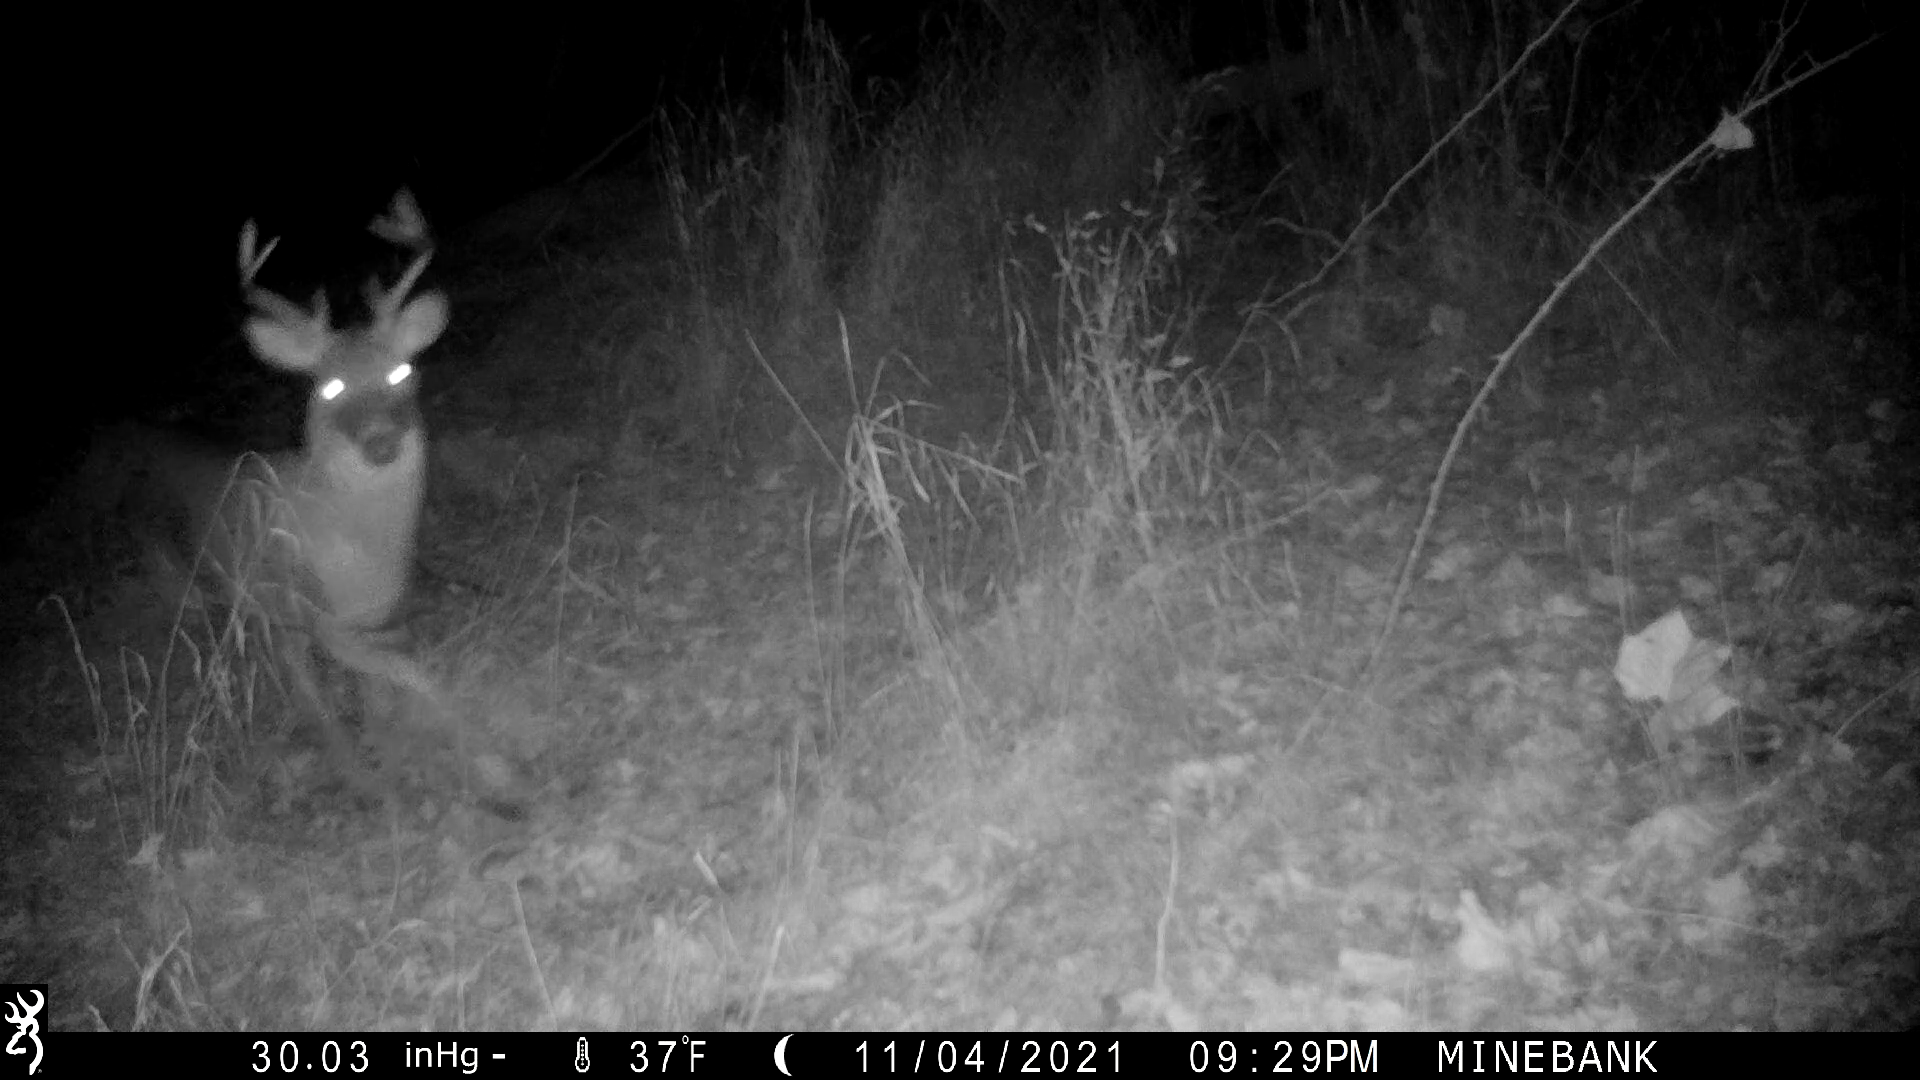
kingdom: Animalia
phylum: Chordata
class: Mammalia
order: Artiodactyla
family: Cervidae
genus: Odocoileus
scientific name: Odocoileus virginianus
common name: White-tailed deer
